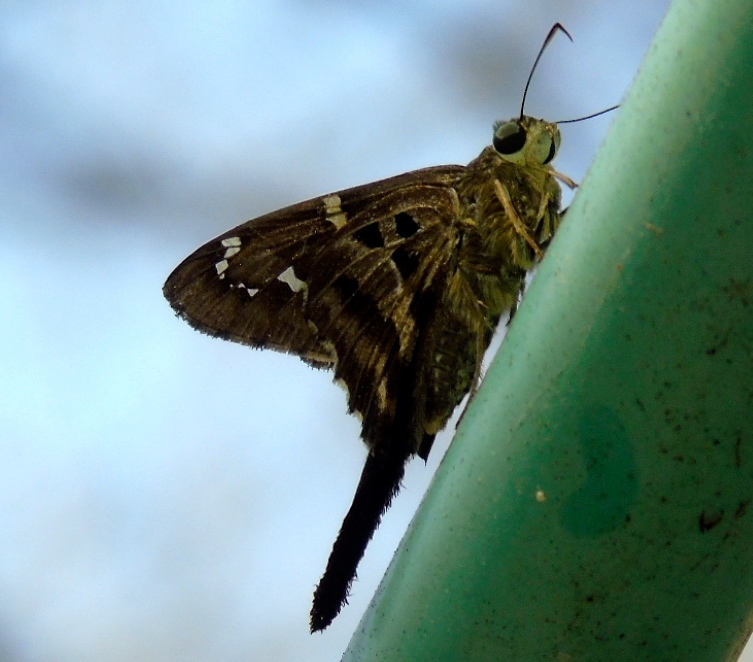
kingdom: Animalia
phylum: Arthropoda
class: Insecta
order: Lepidoptera
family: Hesperiidae
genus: Urbanus
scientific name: Urbanus proteus
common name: Long-tailed skipper
